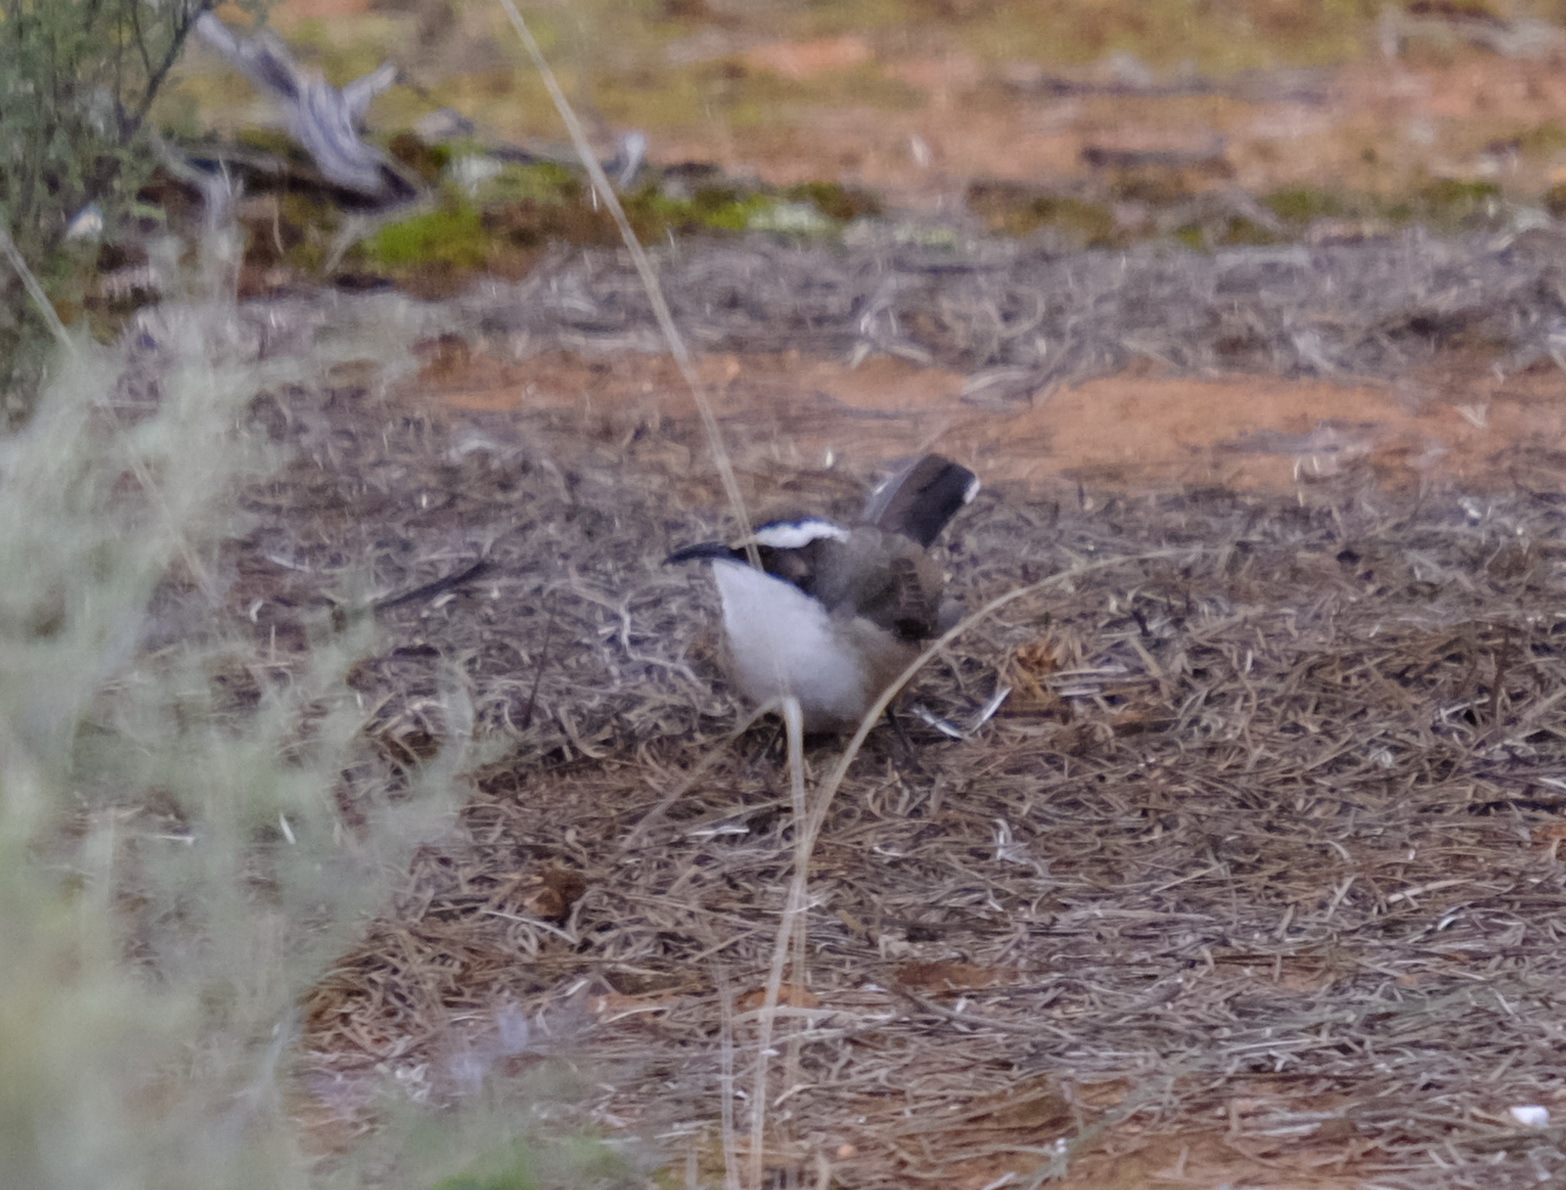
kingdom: Animalia
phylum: Chordata
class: Aves
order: Passeriformes
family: Pomatostomidae
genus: Pomatostomus
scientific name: Pomatostomus superciliosus
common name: White-browed babbler
